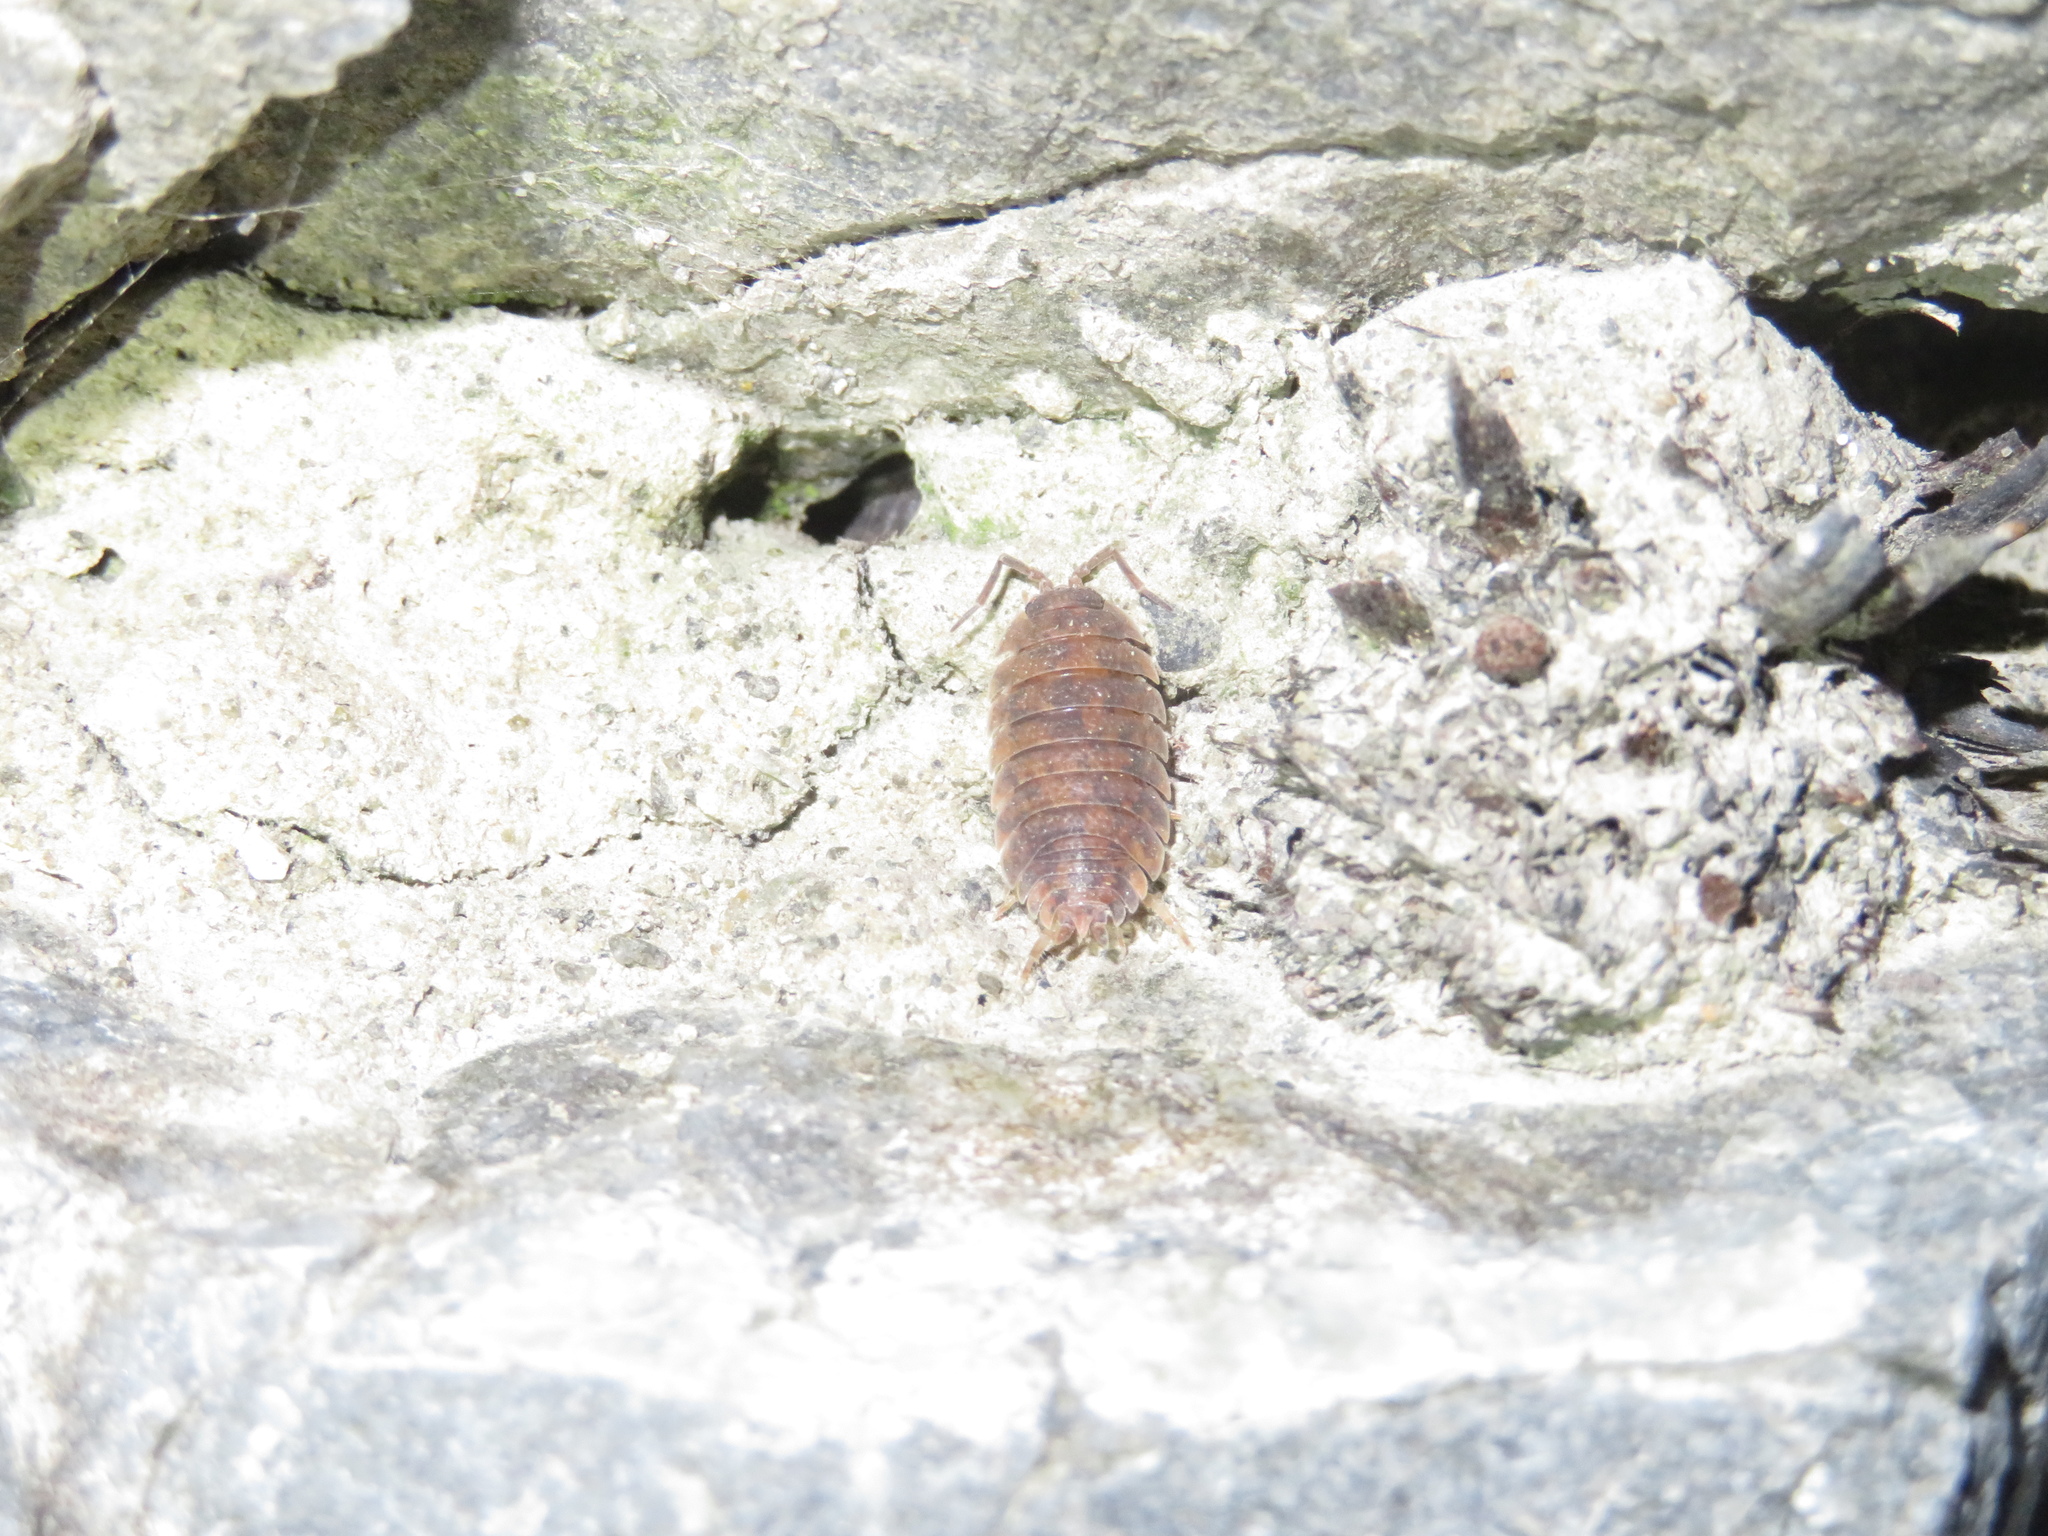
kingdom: Animalia
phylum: Arthropoda
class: Malacostraca
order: Isopoda
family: Porcellionidae
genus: Porcellio
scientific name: Porcellio scaber
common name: Common rough woodlouse
